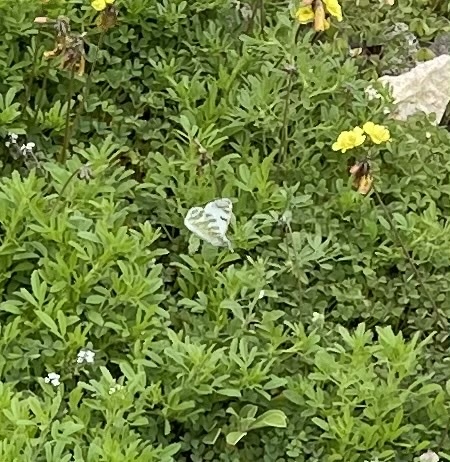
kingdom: Animalia
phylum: Arthropoda
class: Insecta
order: Lepidoptera
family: Pieridae
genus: Euchloe
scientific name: Euchloe grancanariensis
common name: Gran canaria green-striped white
